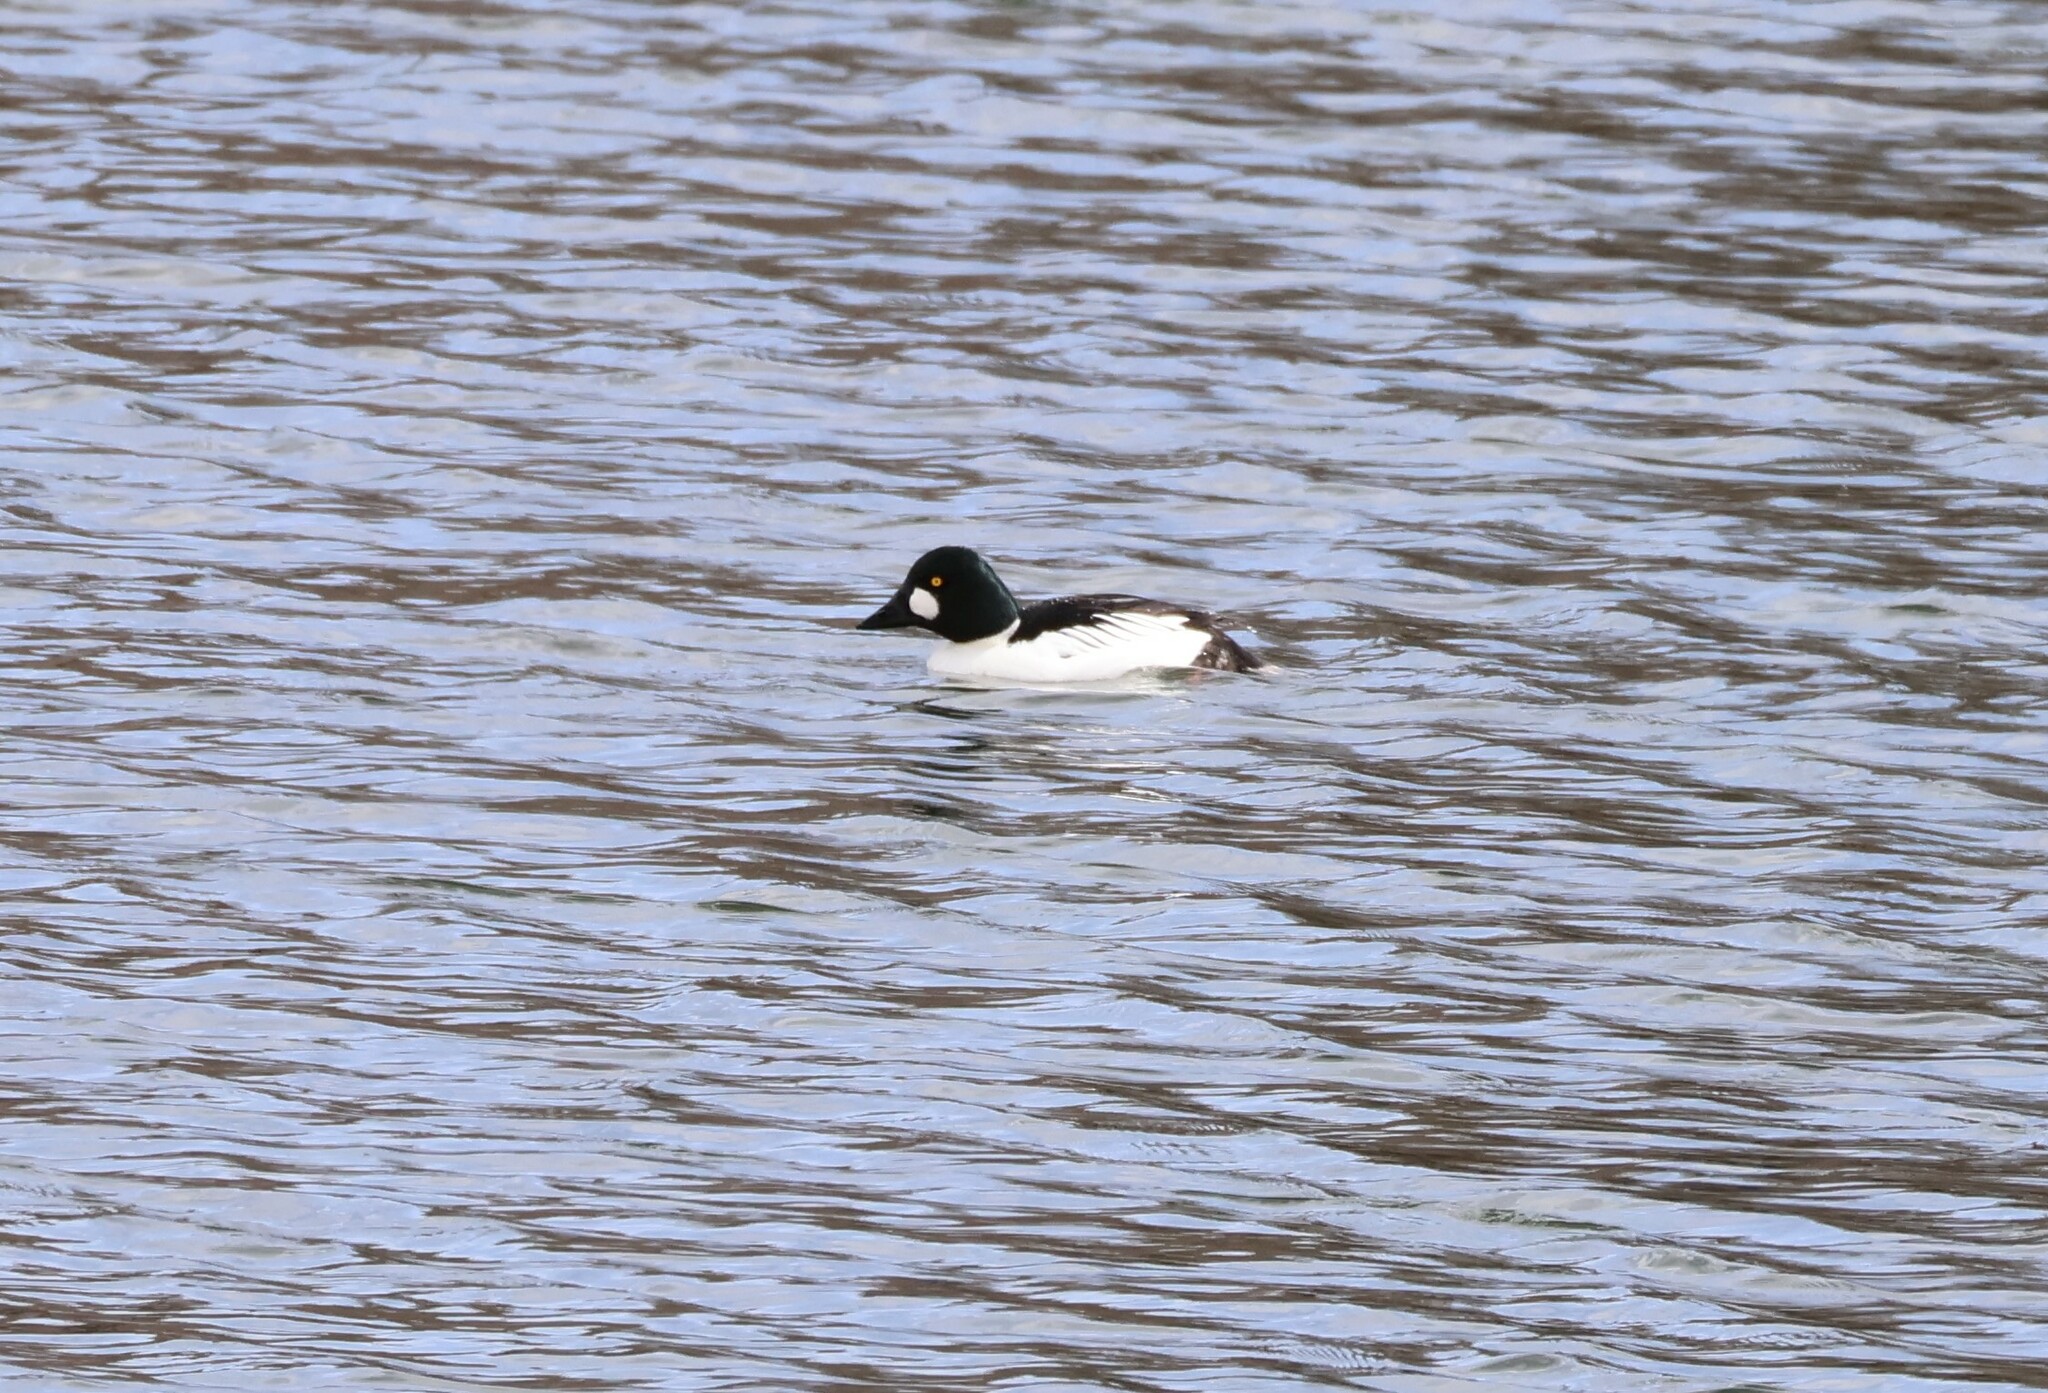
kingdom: Animalia
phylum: Chordata
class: Aves
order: Anseriformes
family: Anatidae
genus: Bucephala
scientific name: Bucephala clangula
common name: Common goldeneye
